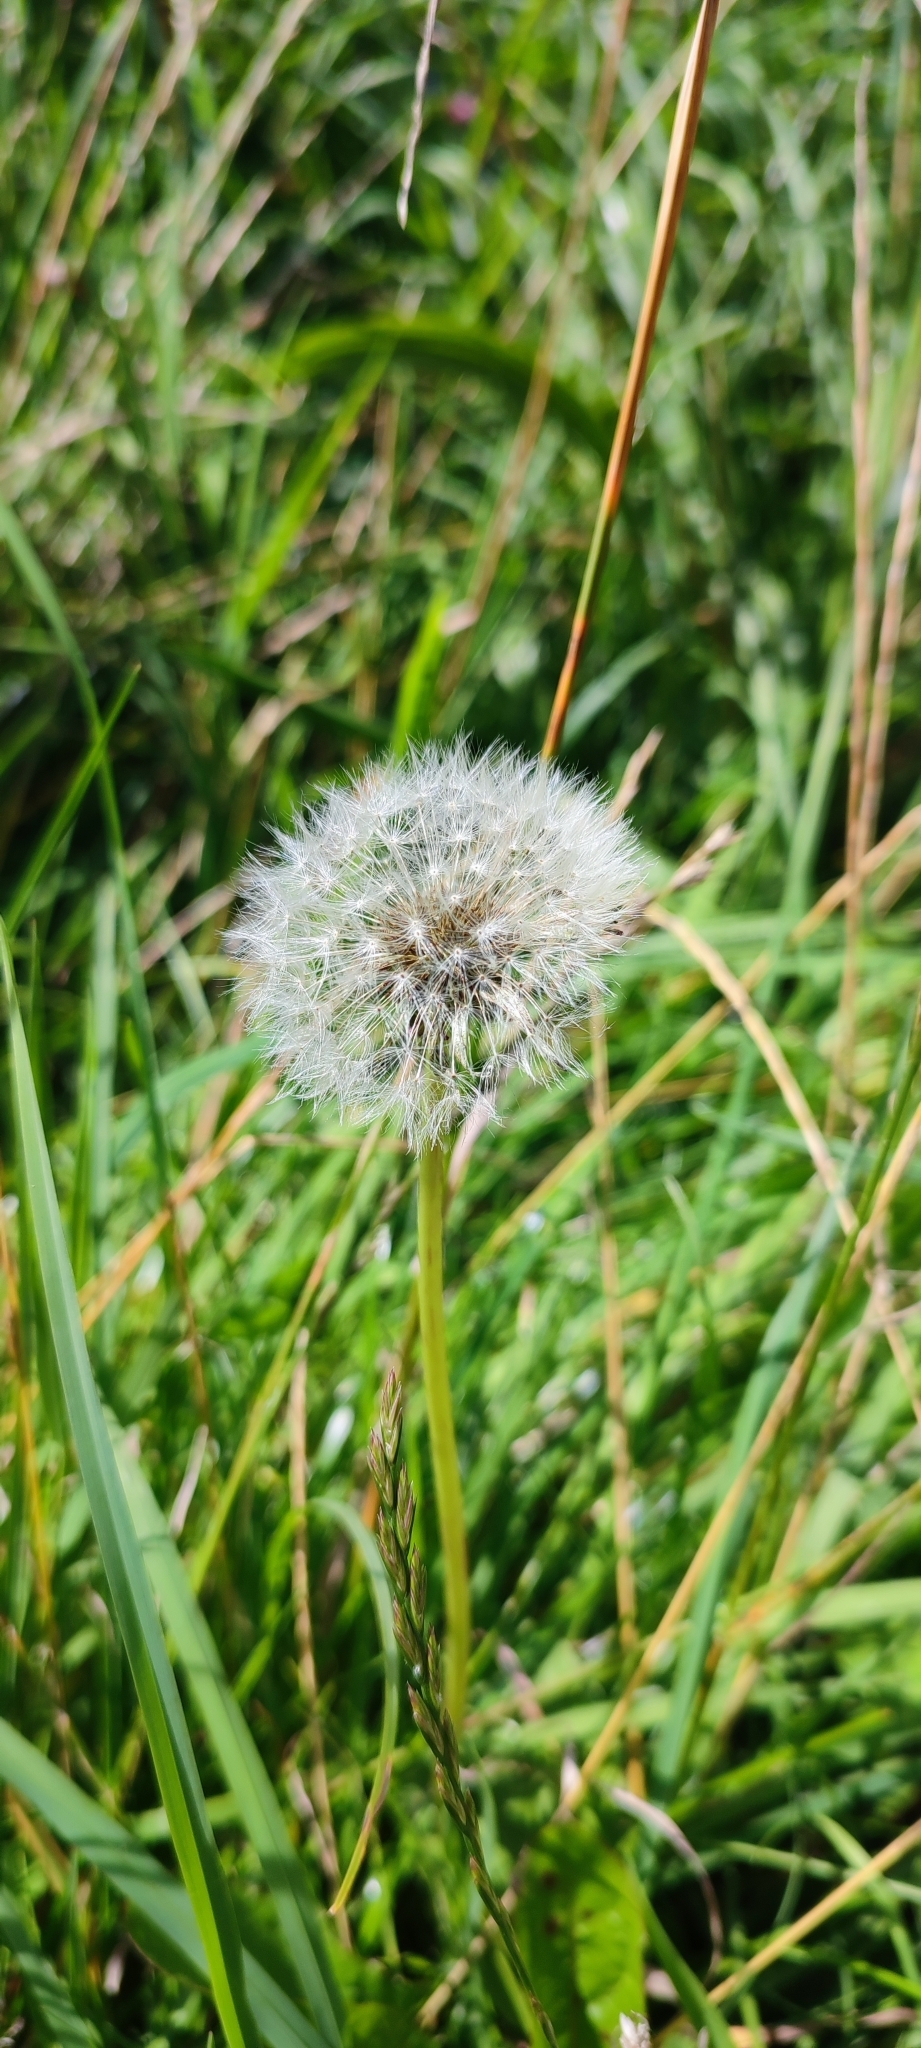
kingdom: Plantae
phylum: Tracheophyta
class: Magnoliopsida
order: Asterales
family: Asteraceae
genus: Taraxacum
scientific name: Taraxacum officinale
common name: Common dandelion
